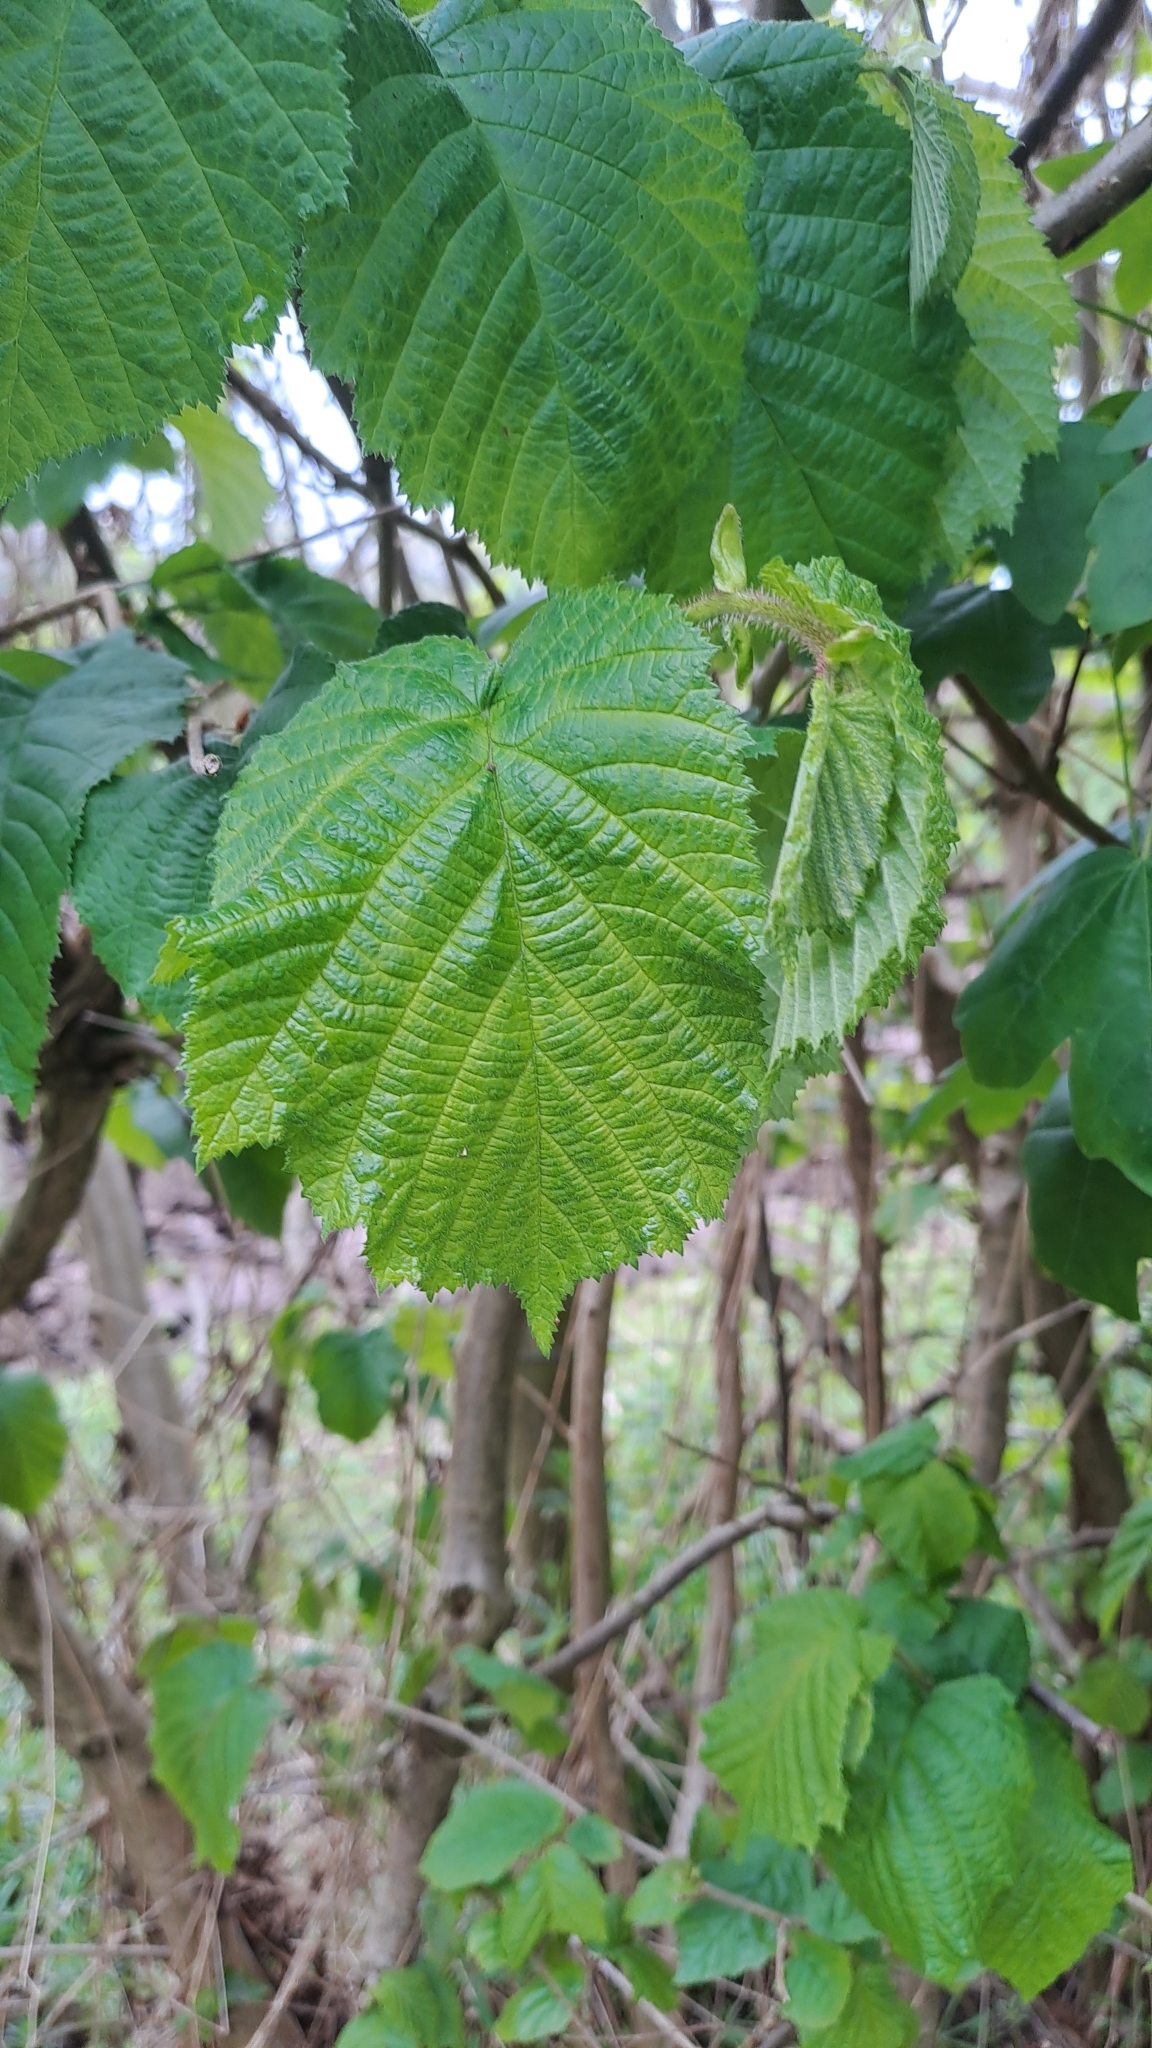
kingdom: Plantae
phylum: Tracheophyta
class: Magnoliopsida
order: Fagales
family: Betulaceae
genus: Corylus
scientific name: Corylus avellana
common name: European hazel
